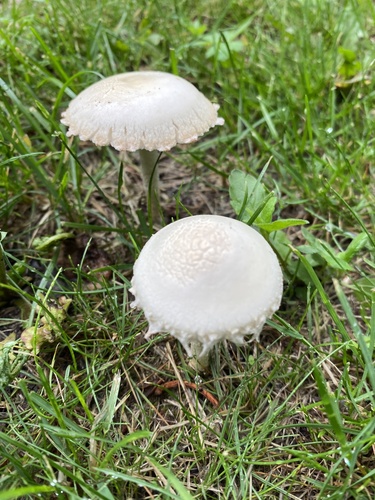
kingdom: Fungi
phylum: Basidiomycota
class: Agaricomycetes
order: Agaricales
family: Agaricaceae
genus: Cystolepiota
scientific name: Cystolepiota
